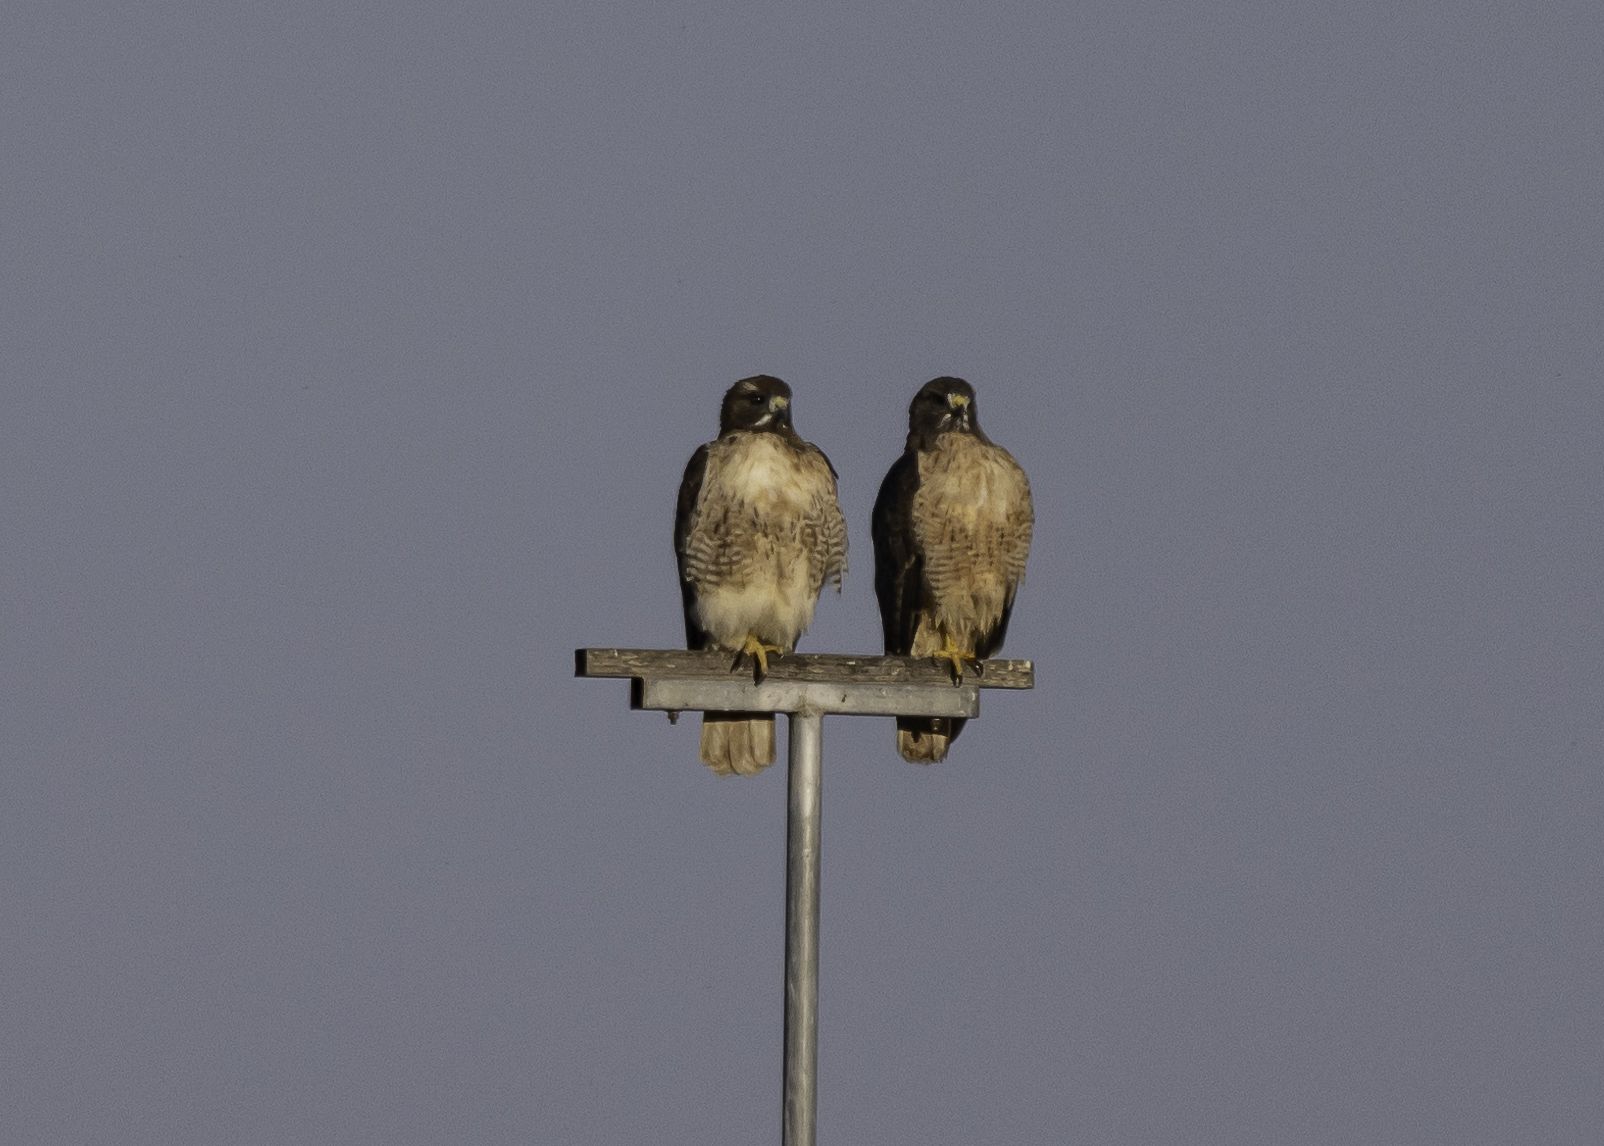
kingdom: Animalia
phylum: Chordata
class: Aves
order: Accipitriformes
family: Accipitridae
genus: Buteo
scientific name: Buteo jamaicensis
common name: Red-tailed hawk
